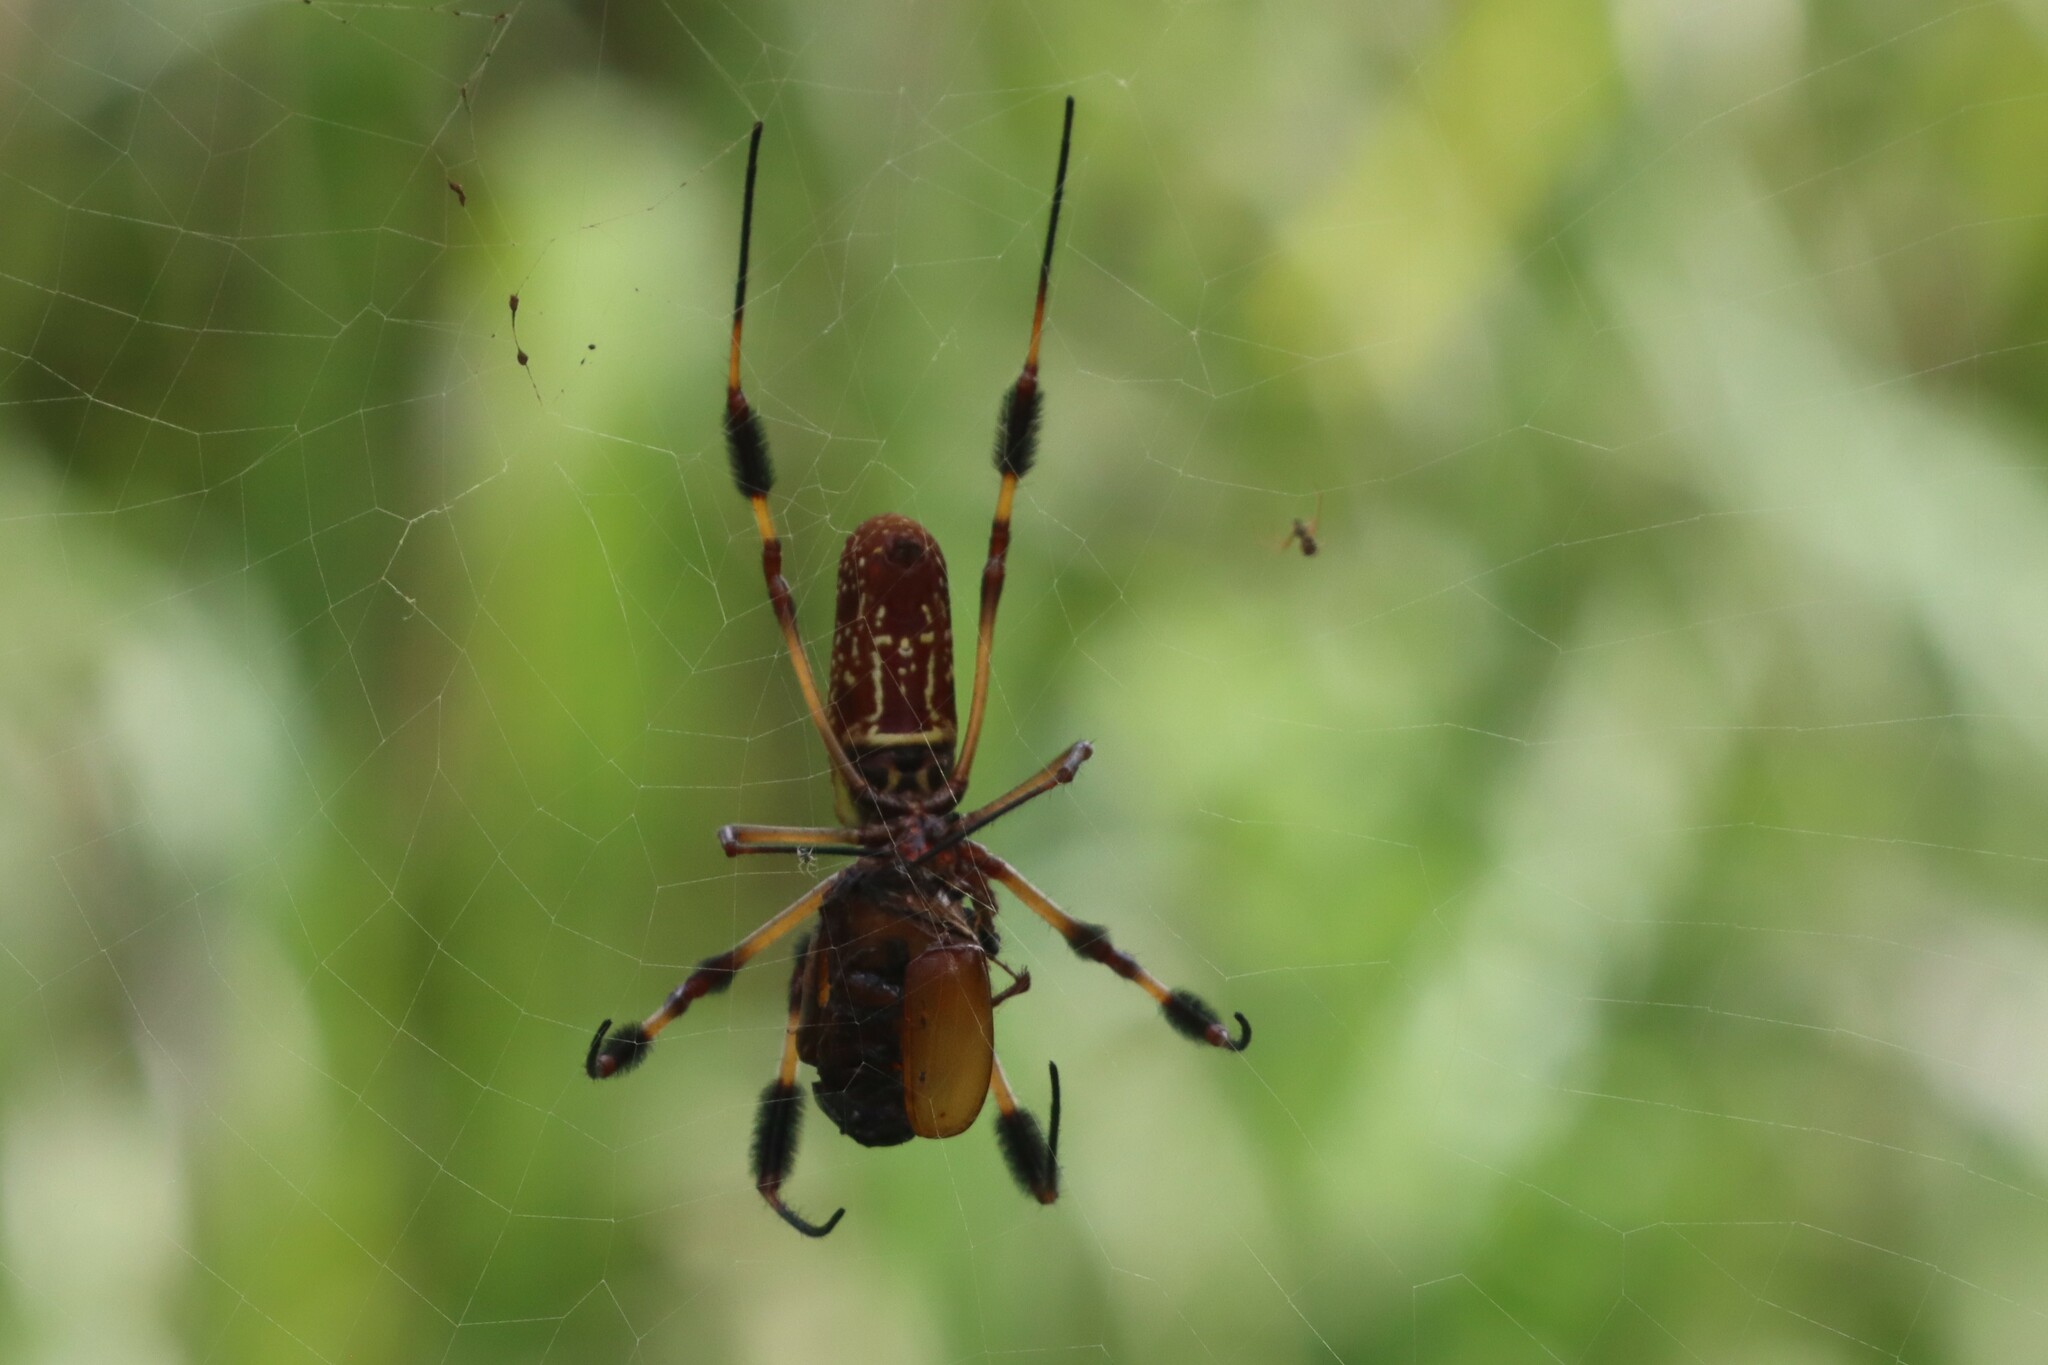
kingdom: Animalia
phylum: Arthropoda
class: Arachnida
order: Araneae
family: Araneidae
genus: Trichonephila
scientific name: Trichonephila clavipes
